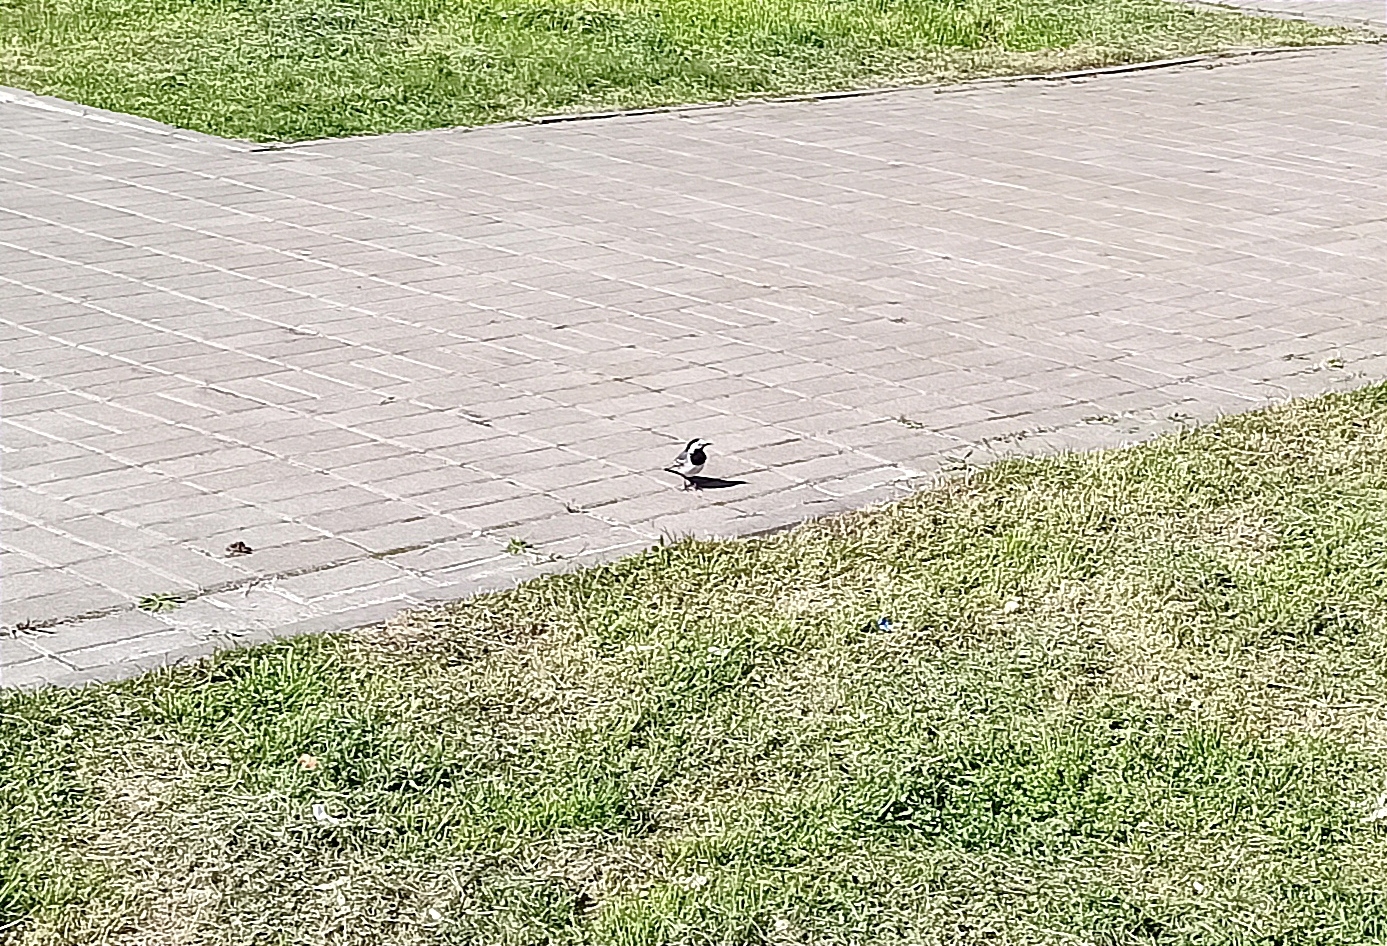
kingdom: Animalia
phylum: Chordata
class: Aves
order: Passeriformes
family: Motacillidae
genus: Motacilla
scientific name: Motacilla alba
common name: White wagtail
